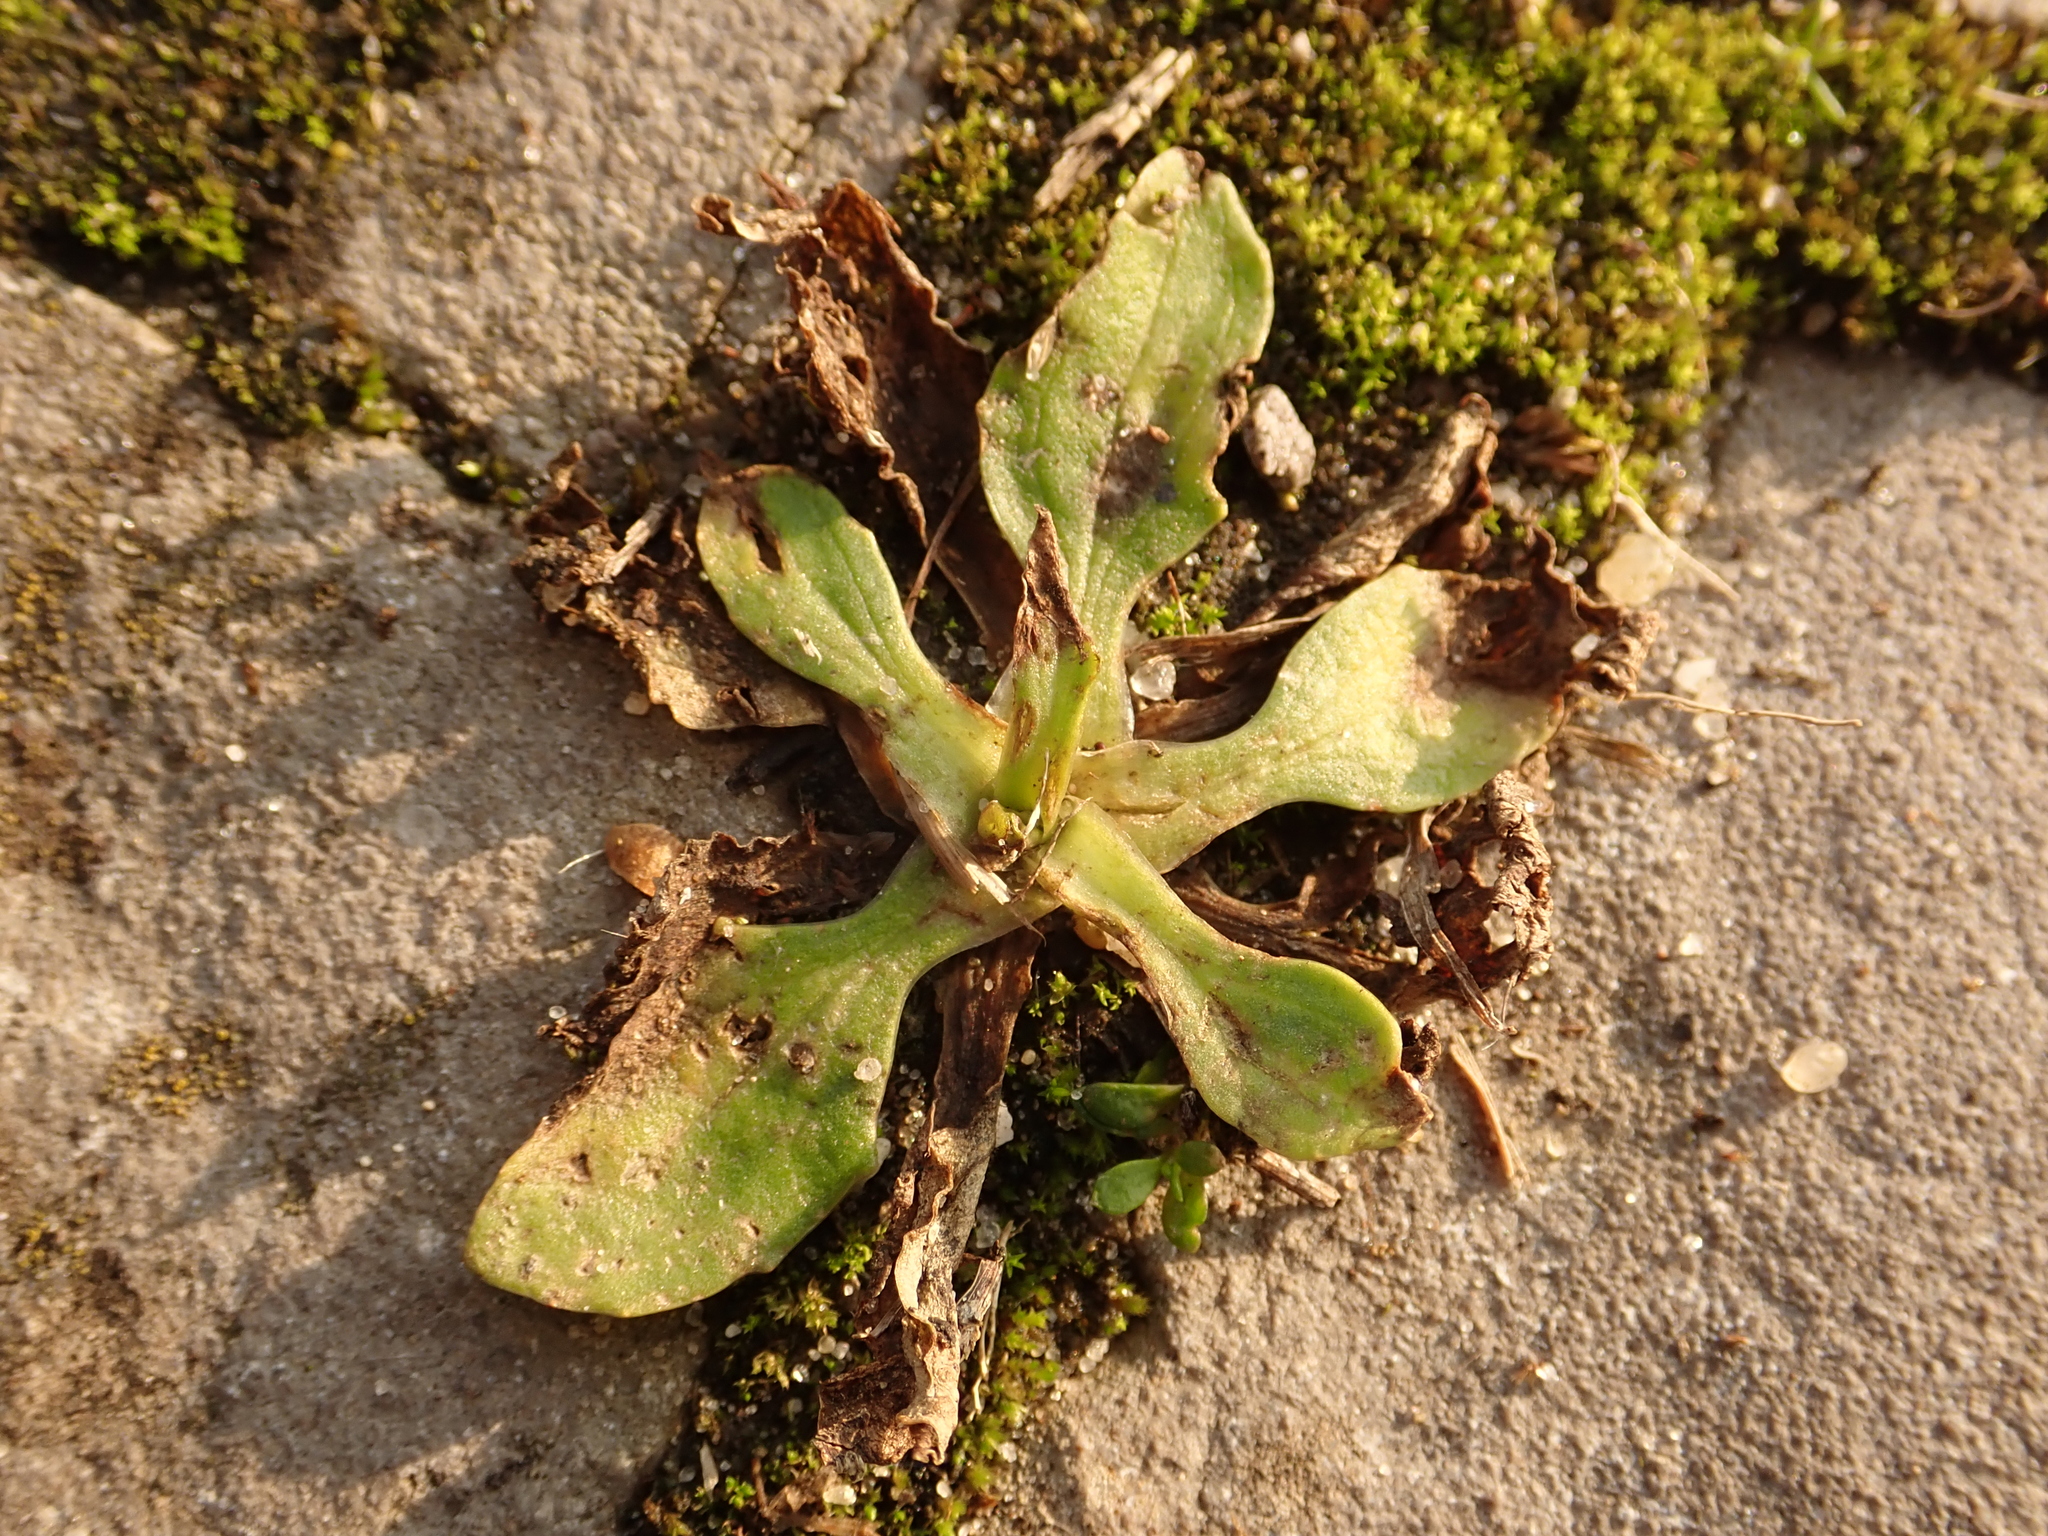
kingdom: Plantae
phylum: Tracheophyta
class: Magnoliopsida
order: Lamiales
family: Plantaginaceae
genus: Plantago
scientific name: Plantago major
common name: Common plantain
